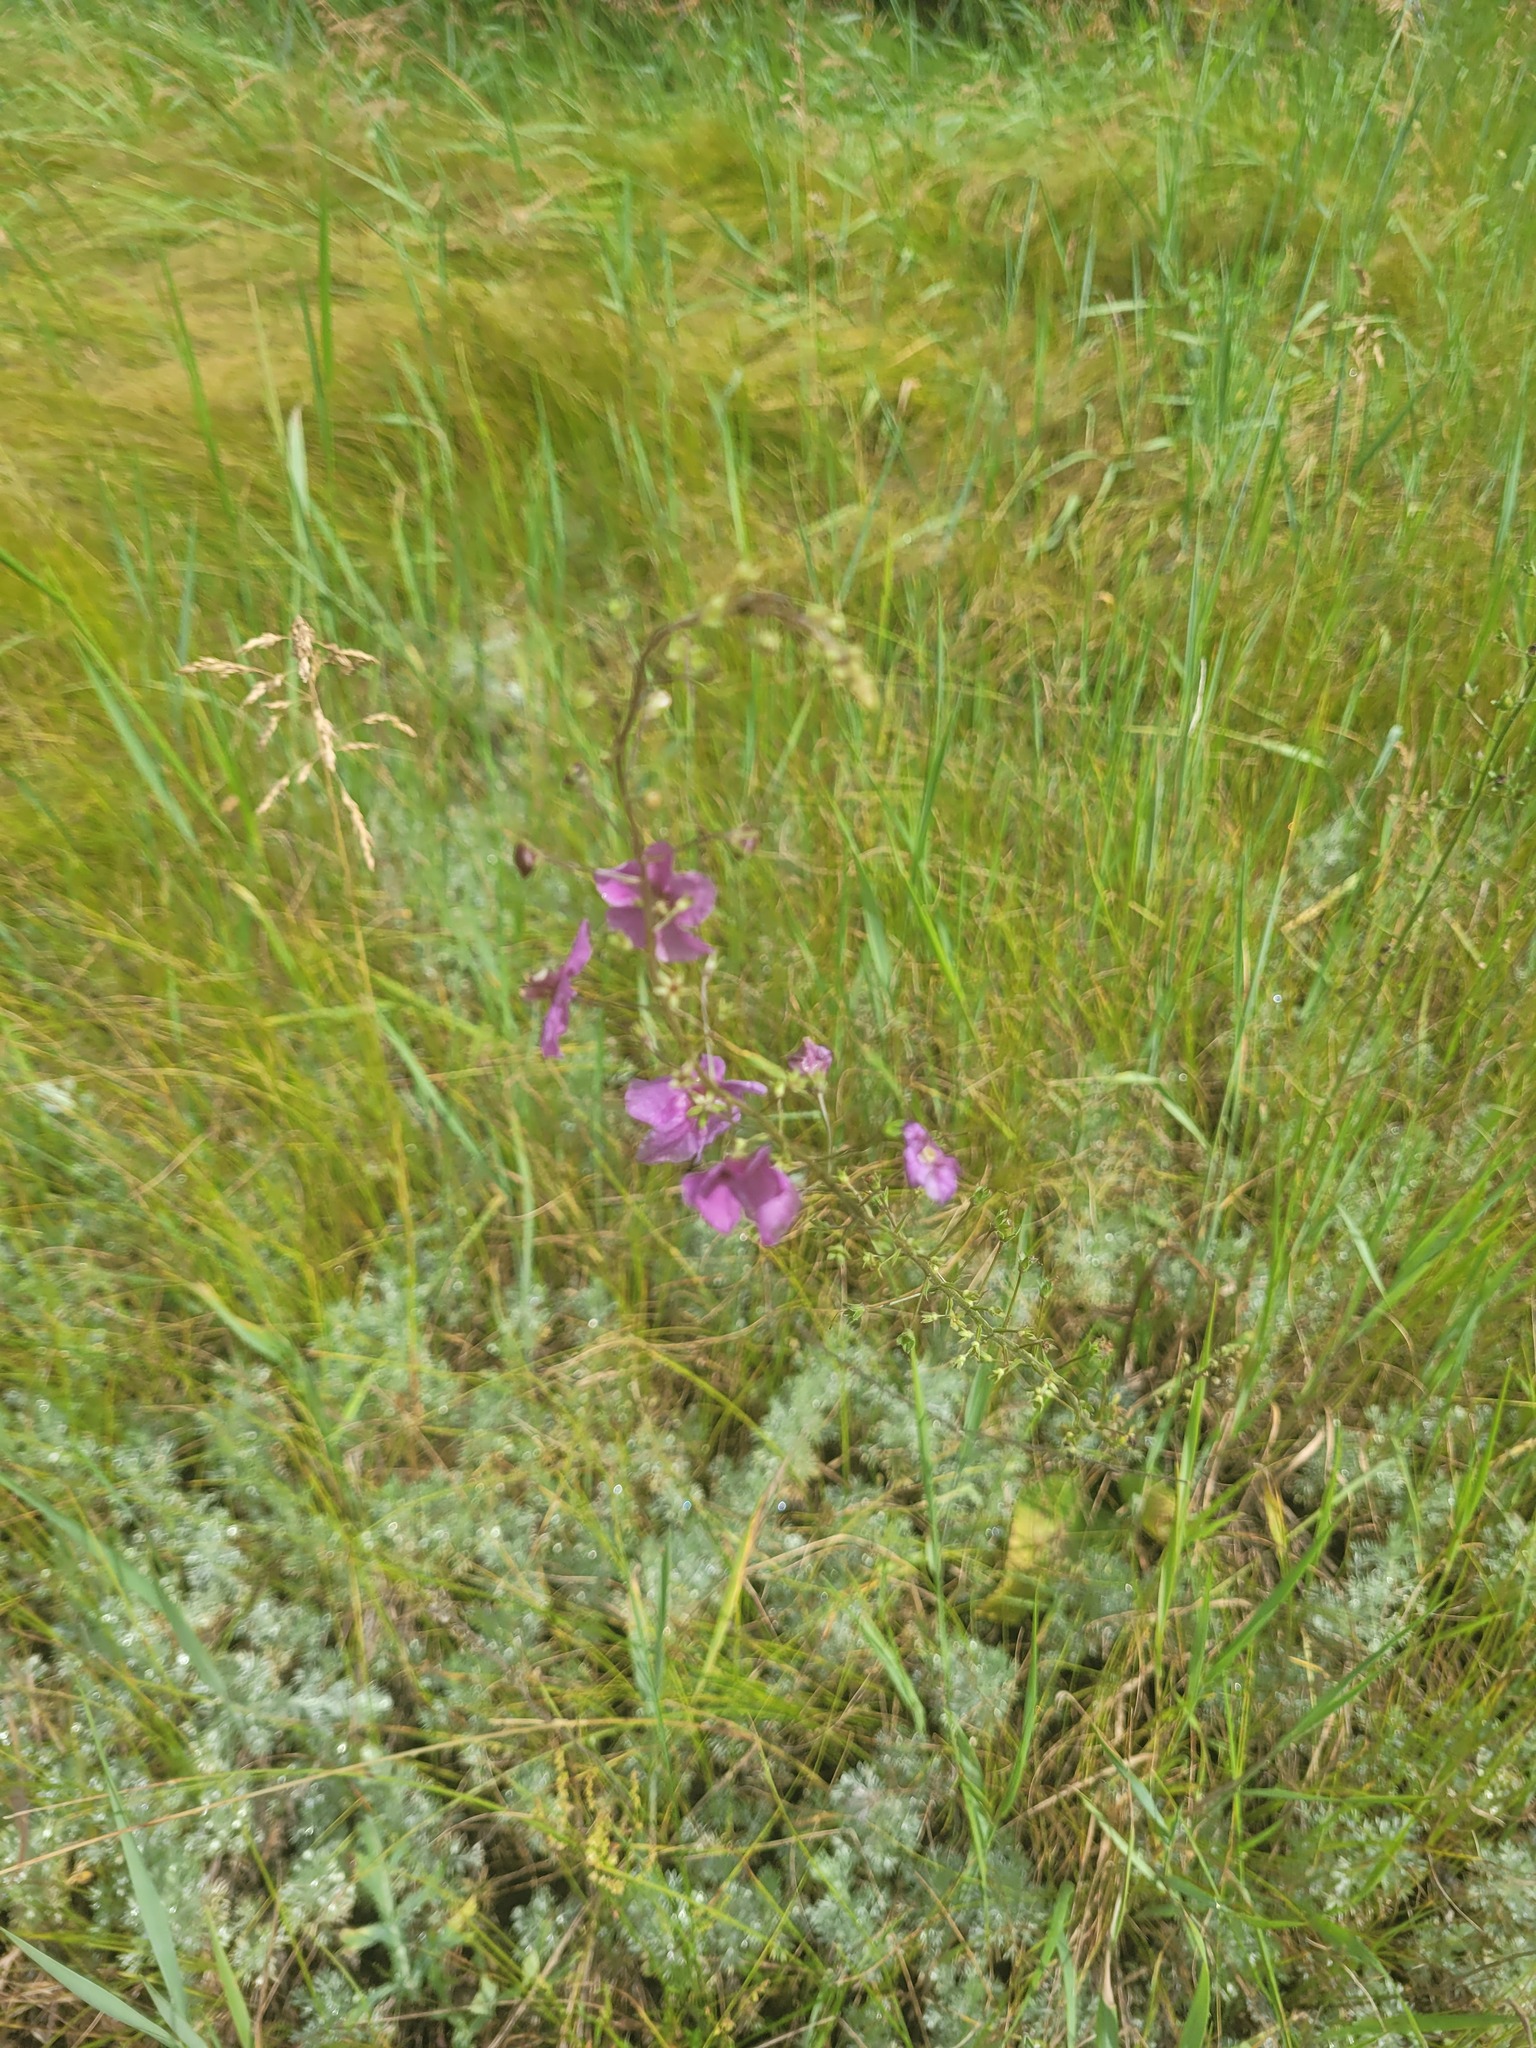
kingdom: Plantae
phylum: Tracheophyta
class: Magnoliopsida
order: Lamiales
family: Scrophulariaceae
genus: Verbascum
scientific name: Verbascum phoeniceum
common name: Purple mullein
